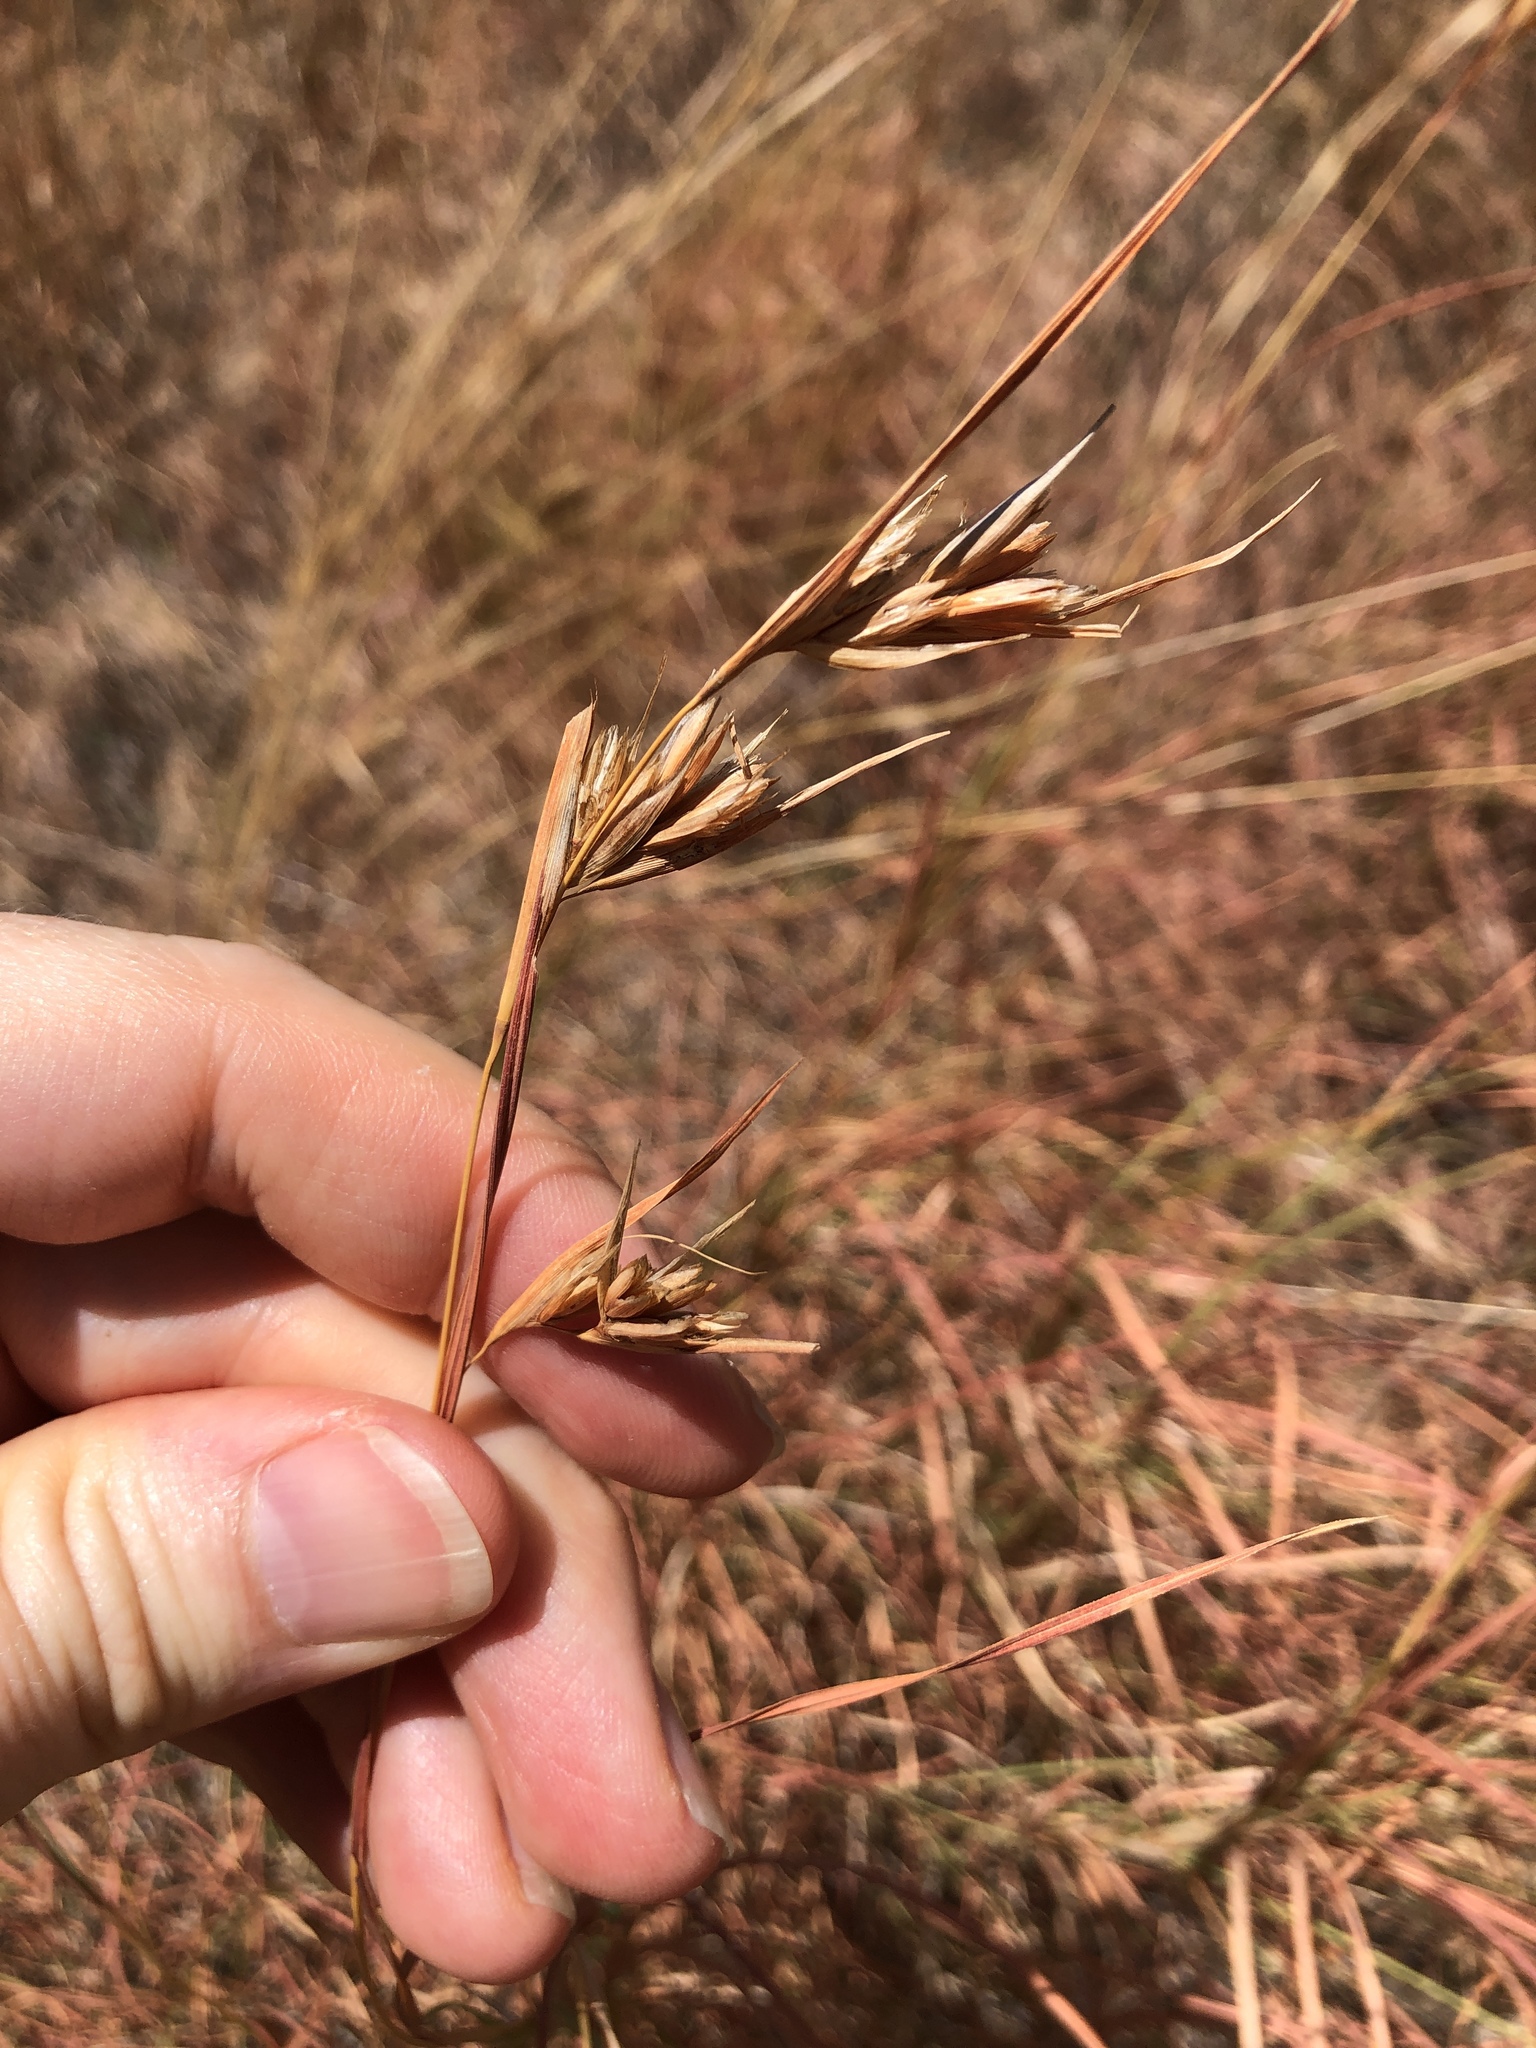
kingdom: Plantae
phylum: Tracheophyta
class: Liliopsida
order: Poales
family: Poaceae
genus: Themeda
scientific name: Themeda triandra
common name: Kangaroo grass
